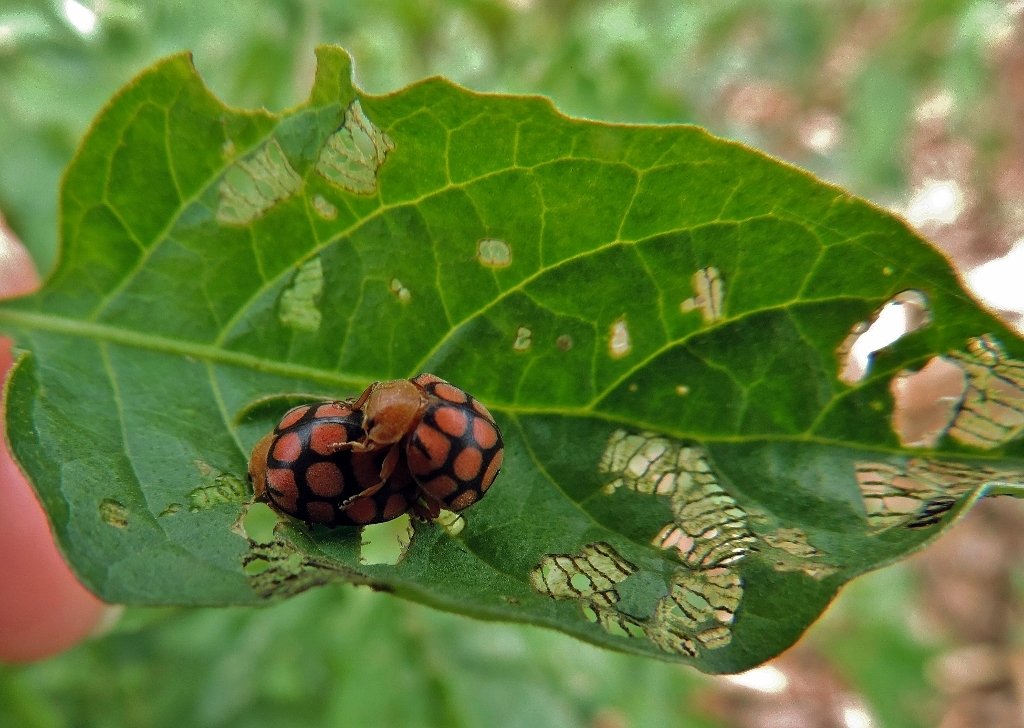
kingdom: Animalia
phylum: Arthropoda
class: Insecta
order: Coleoptera
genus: Solanophila
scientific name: Solanophila
